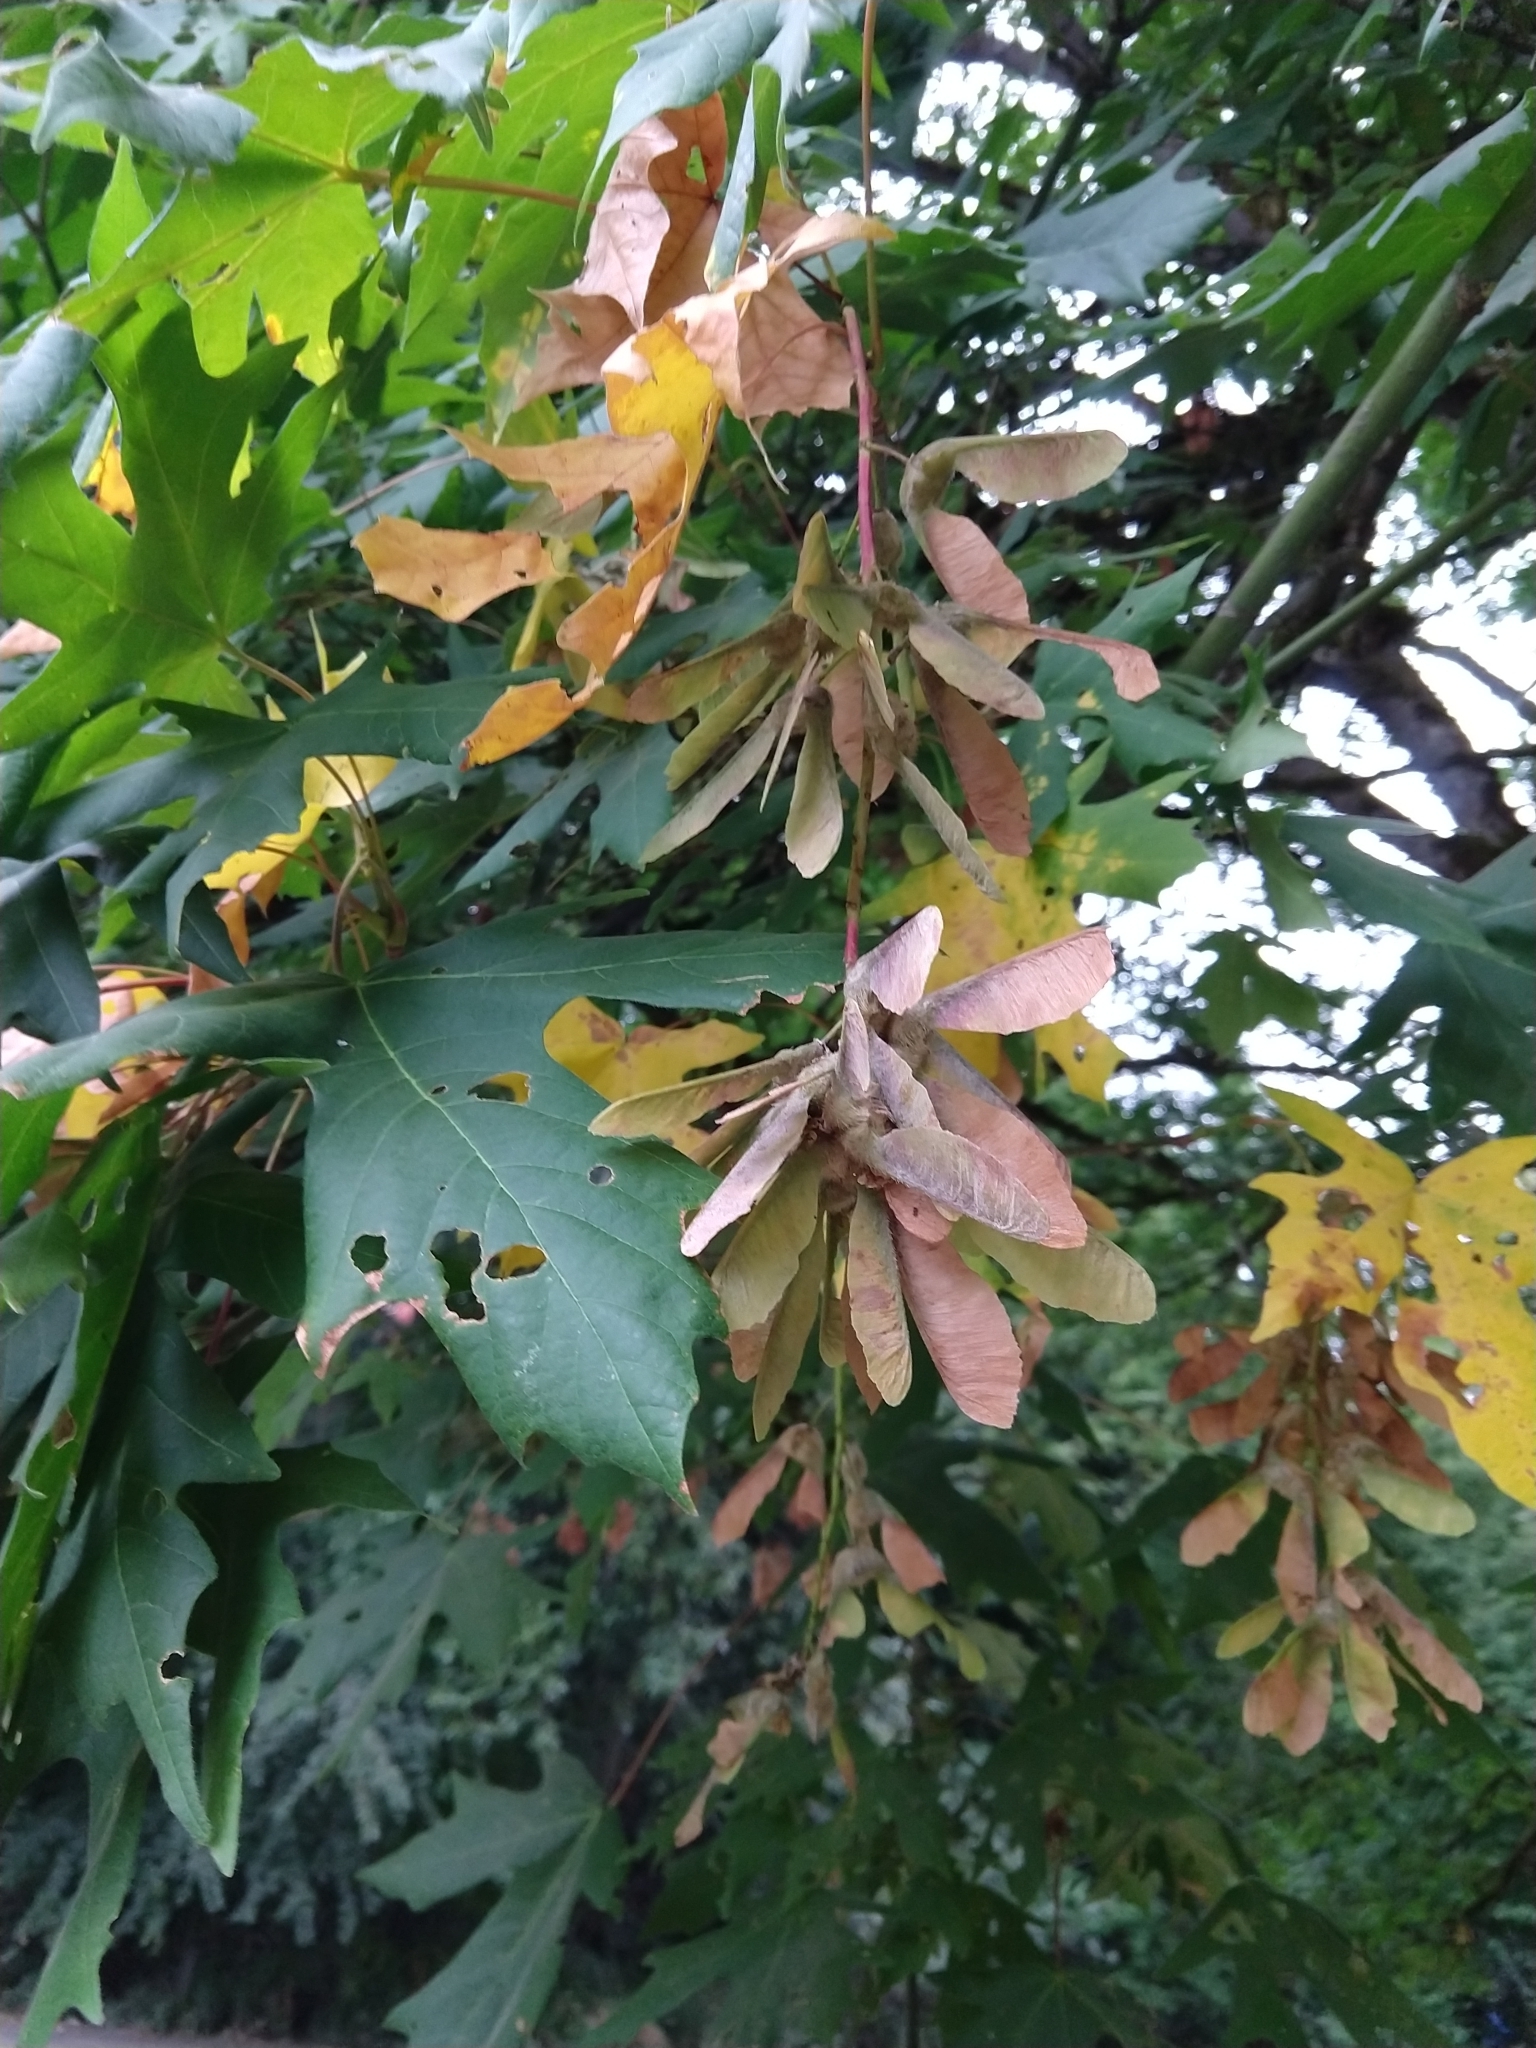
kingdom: Plantae
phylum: Tracheophyta
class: Magnoliopsida
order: Sapindales
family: Sapindaceae
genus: Acer
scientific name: Acer macrophyllum
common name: Oregon maple
